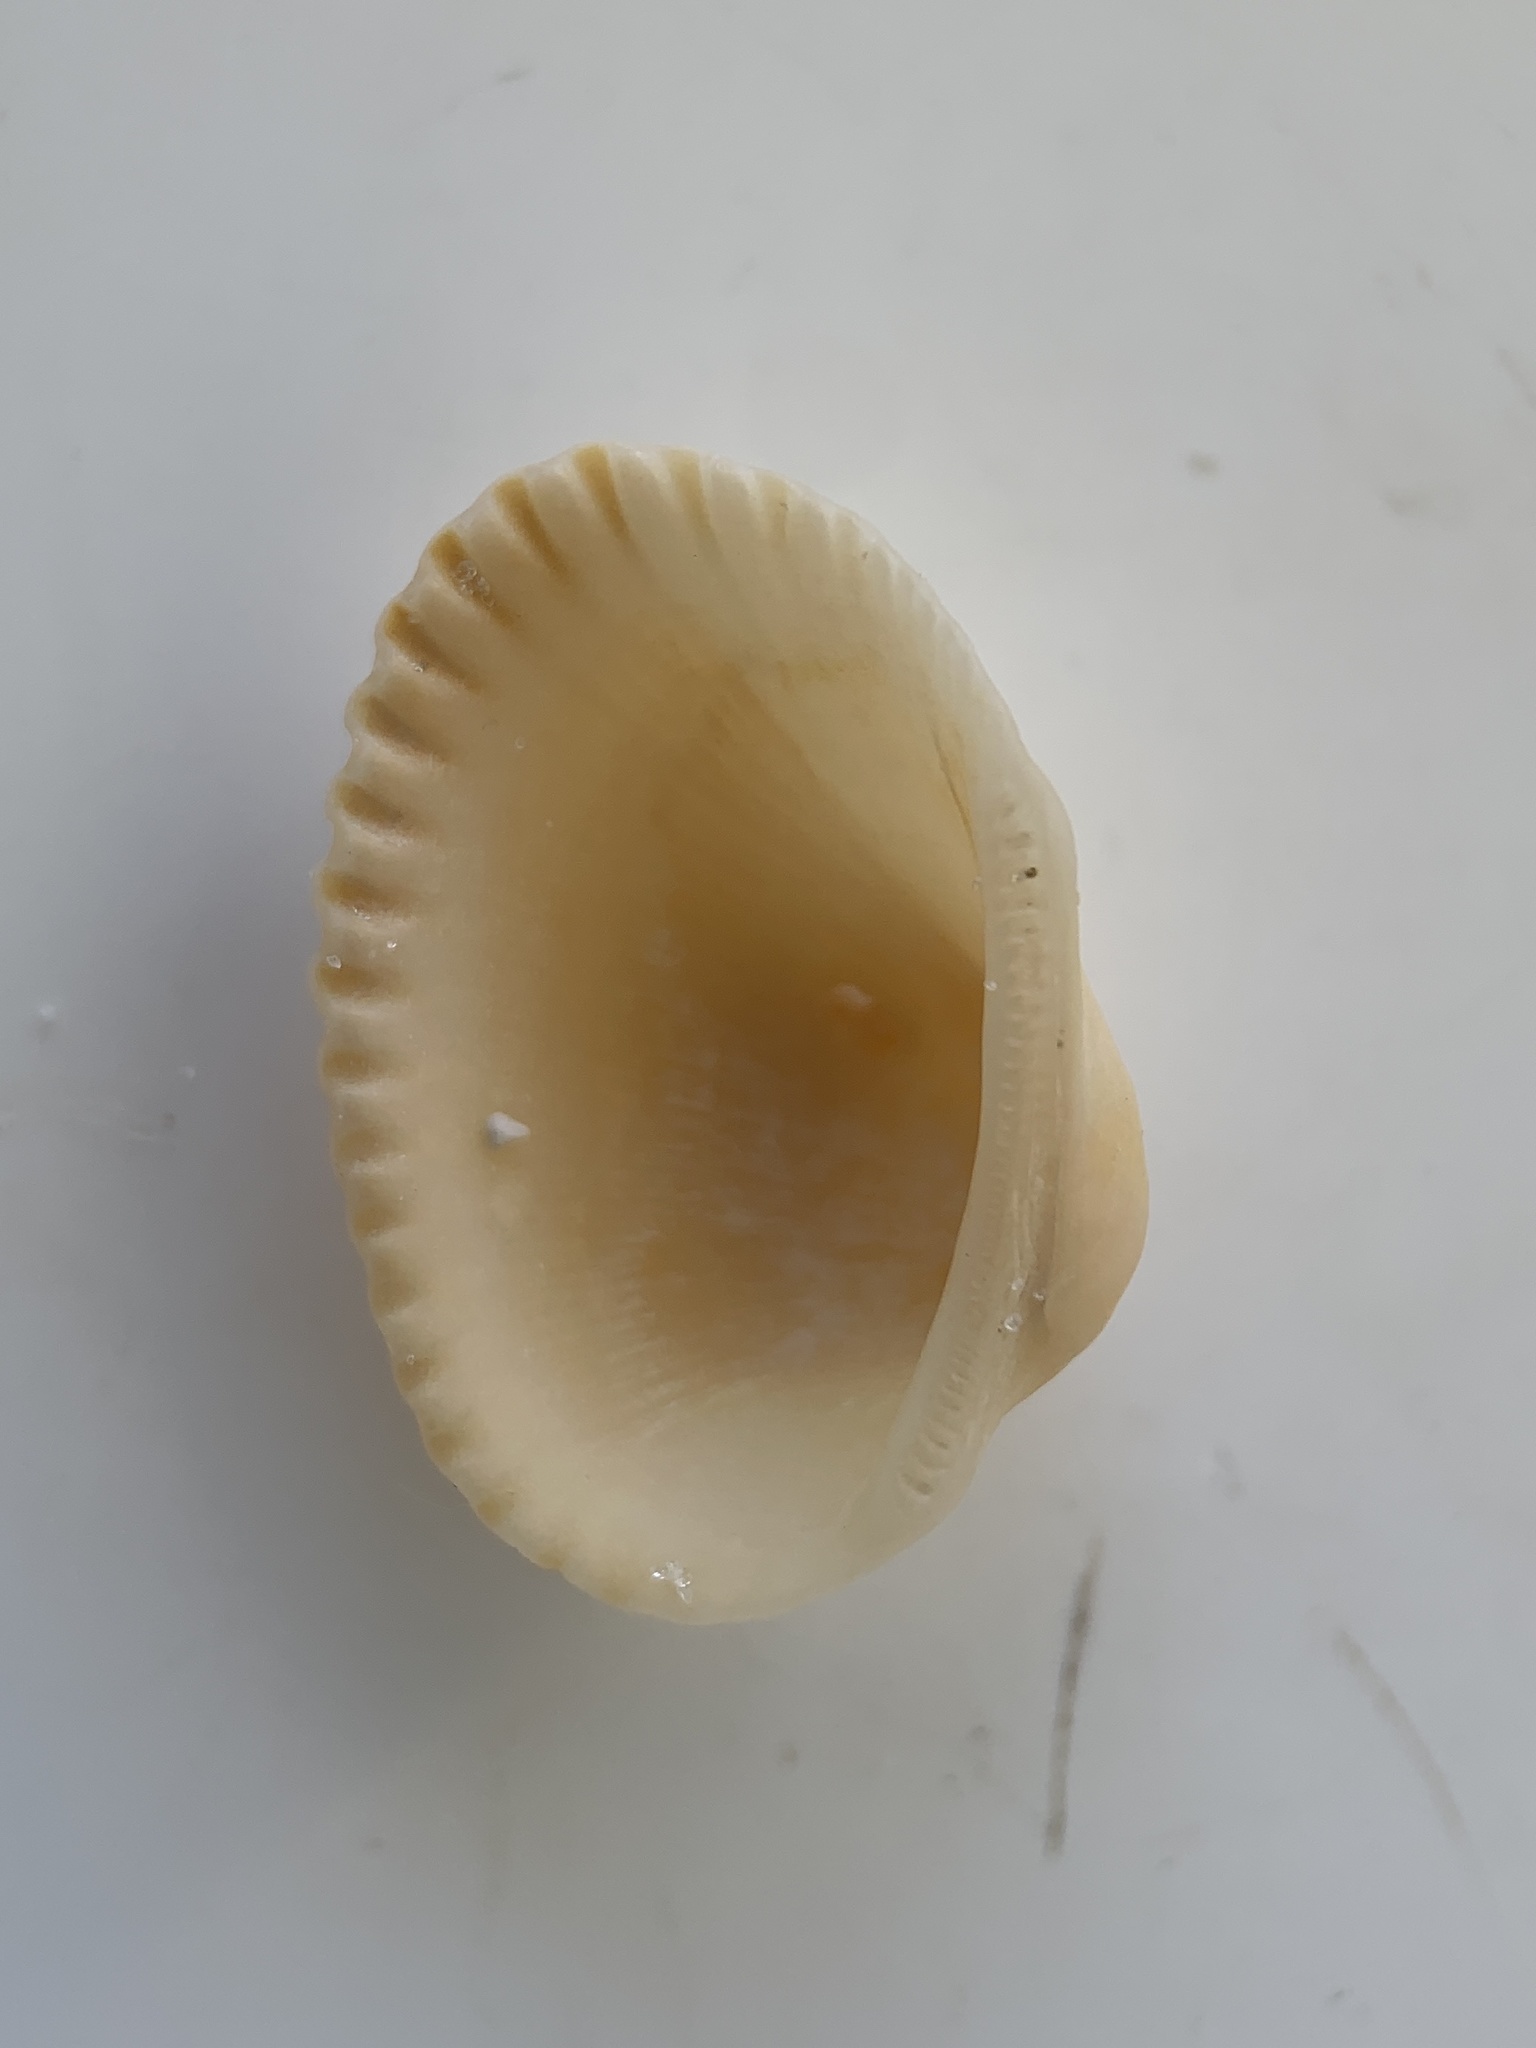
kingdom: Animalia
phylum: Mollusca
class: Bivalvia
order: Arcida
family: Arcidae
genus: Anadara
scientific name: Anadara transversa
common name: Transverse ark
